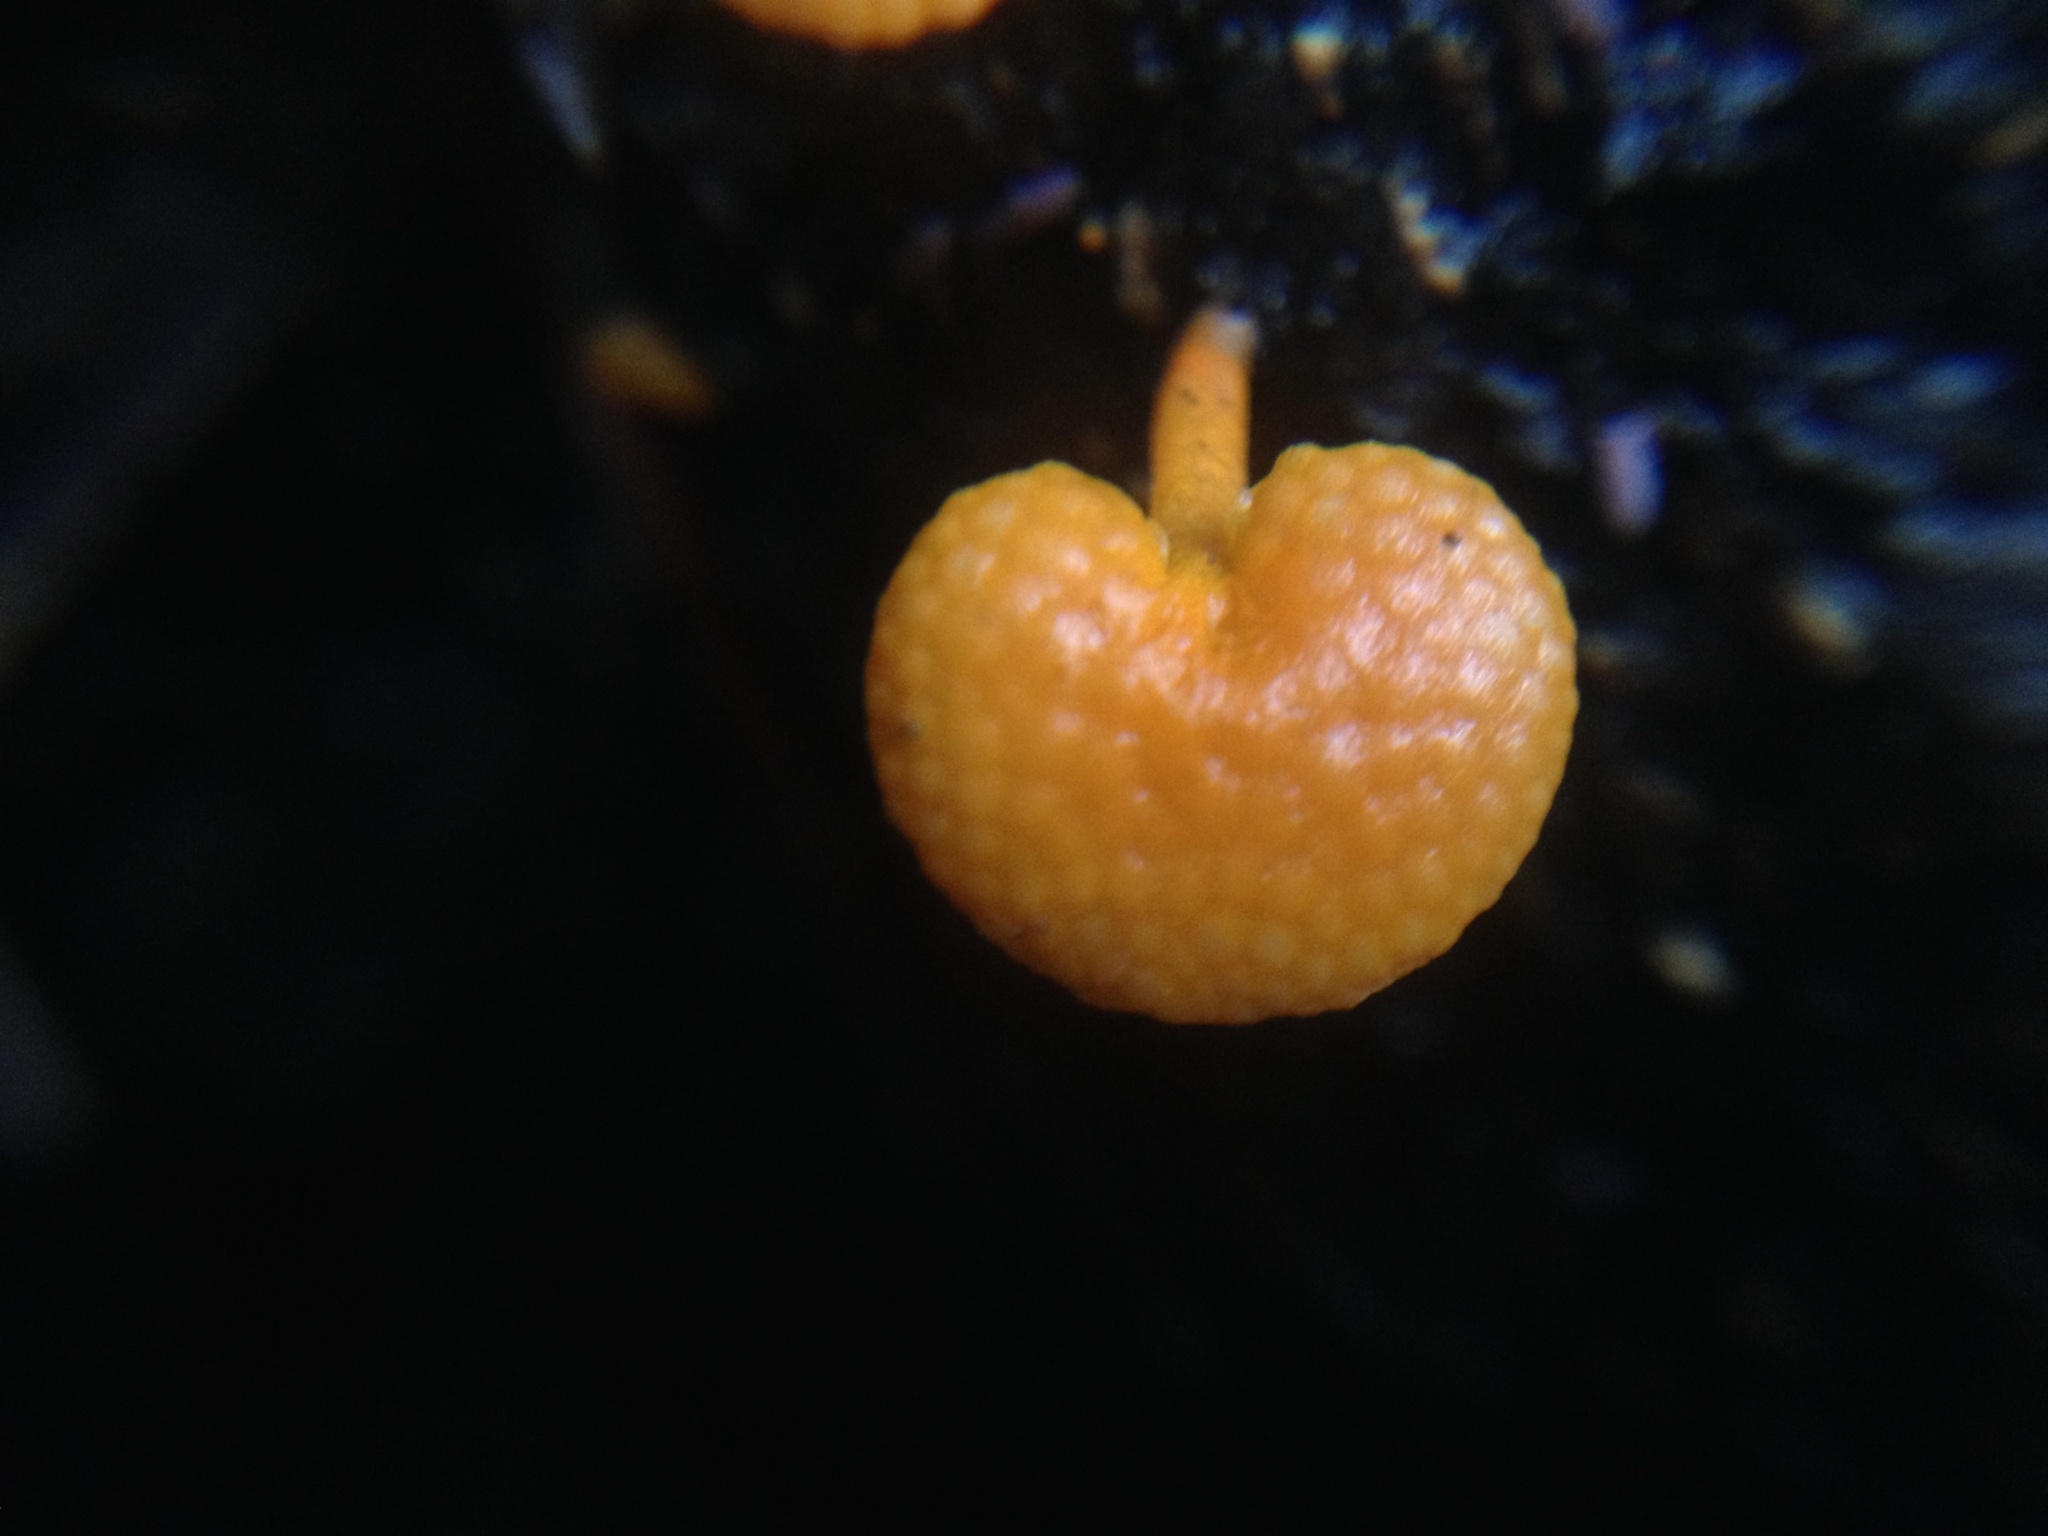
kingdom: Fungi
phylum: Basidiomycota
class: Agaricomycetes
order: Agaricales
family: Mycenaceae
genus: Favolaschia
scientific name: Favolaschia claudopus
